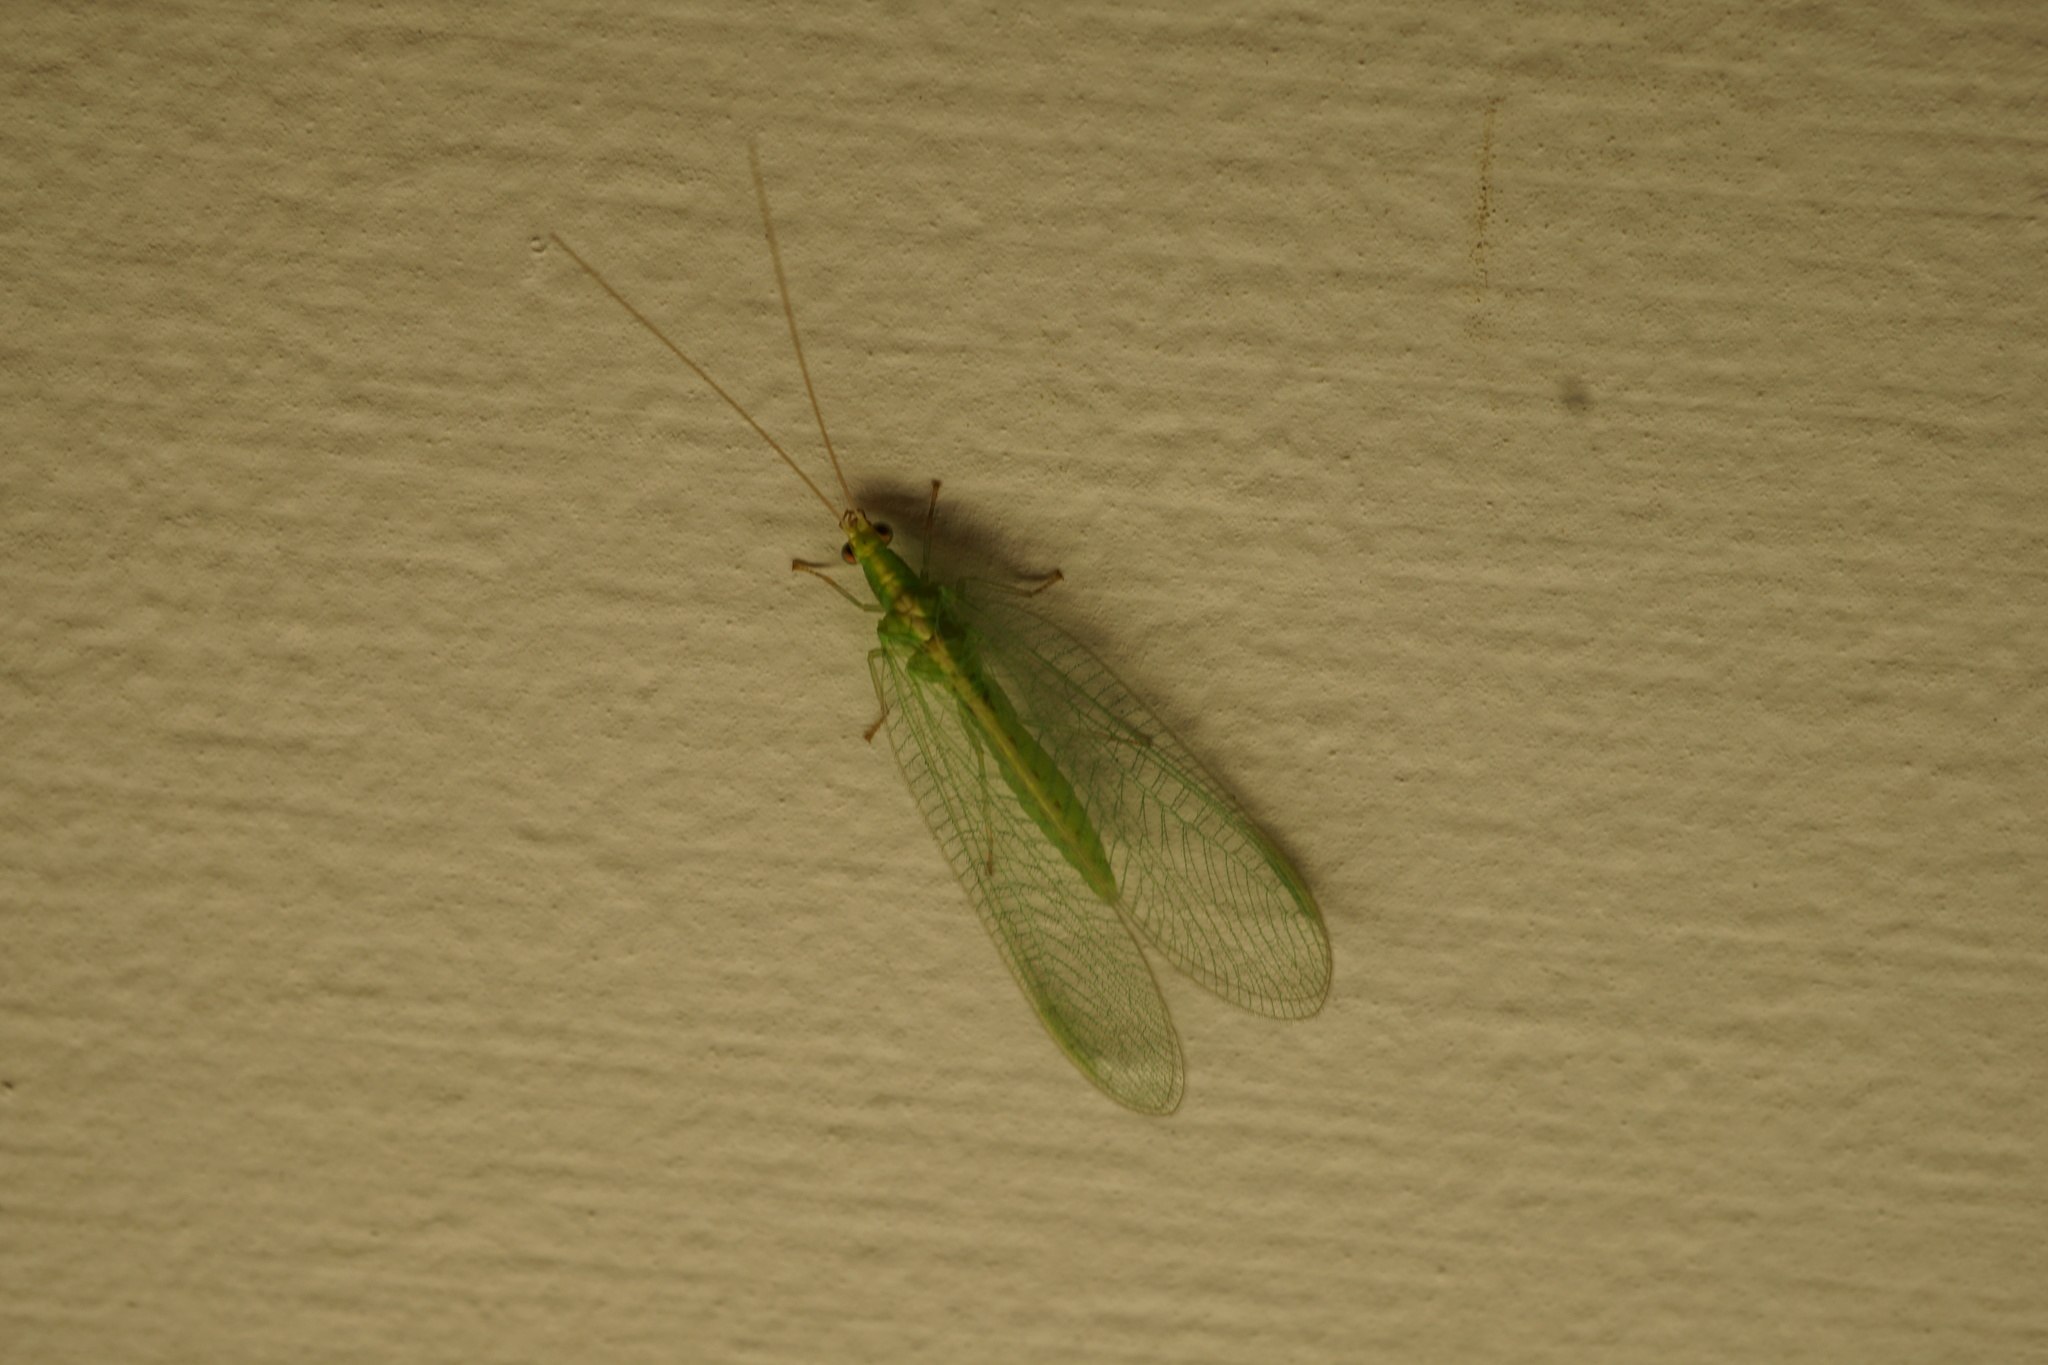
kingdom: Animalia
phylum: Arthropoda
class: Insecta
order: Neuroptera
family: Chrysopidae
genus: Chrysoperla
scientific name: Chrysoperla
